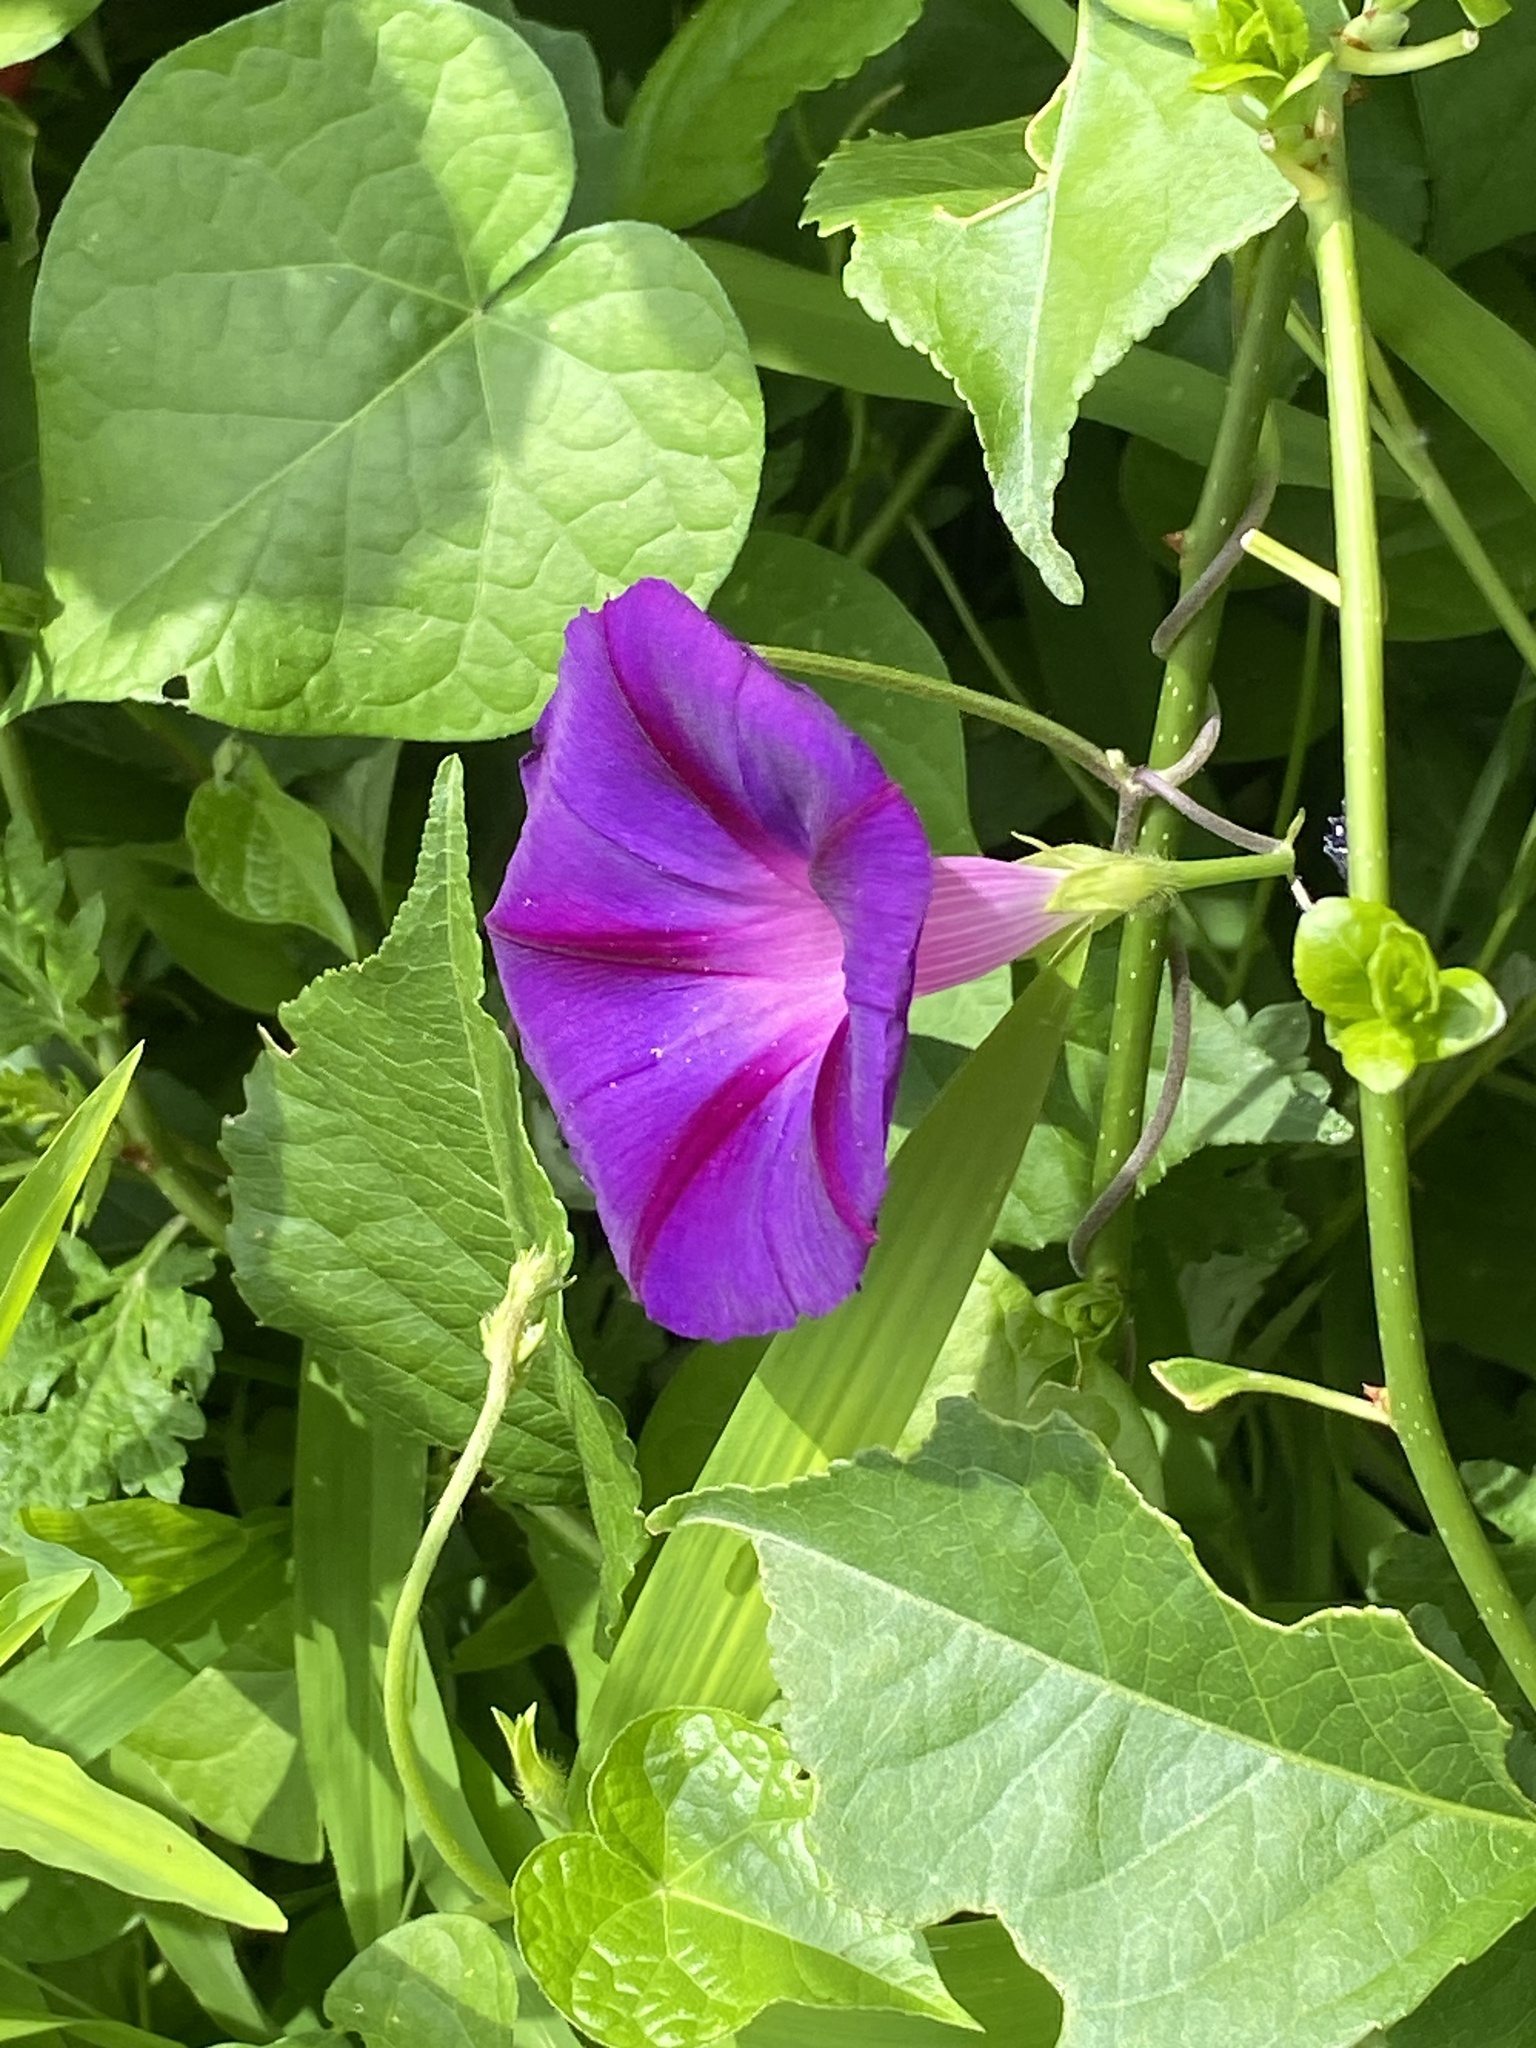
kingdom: Plantae
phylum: Tracheophyta
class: Magnoliopsida
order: Solanales
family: Convolvulaceae
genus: Ipomoea
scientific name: Ipomoea purpurea
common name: Common morning-glory
